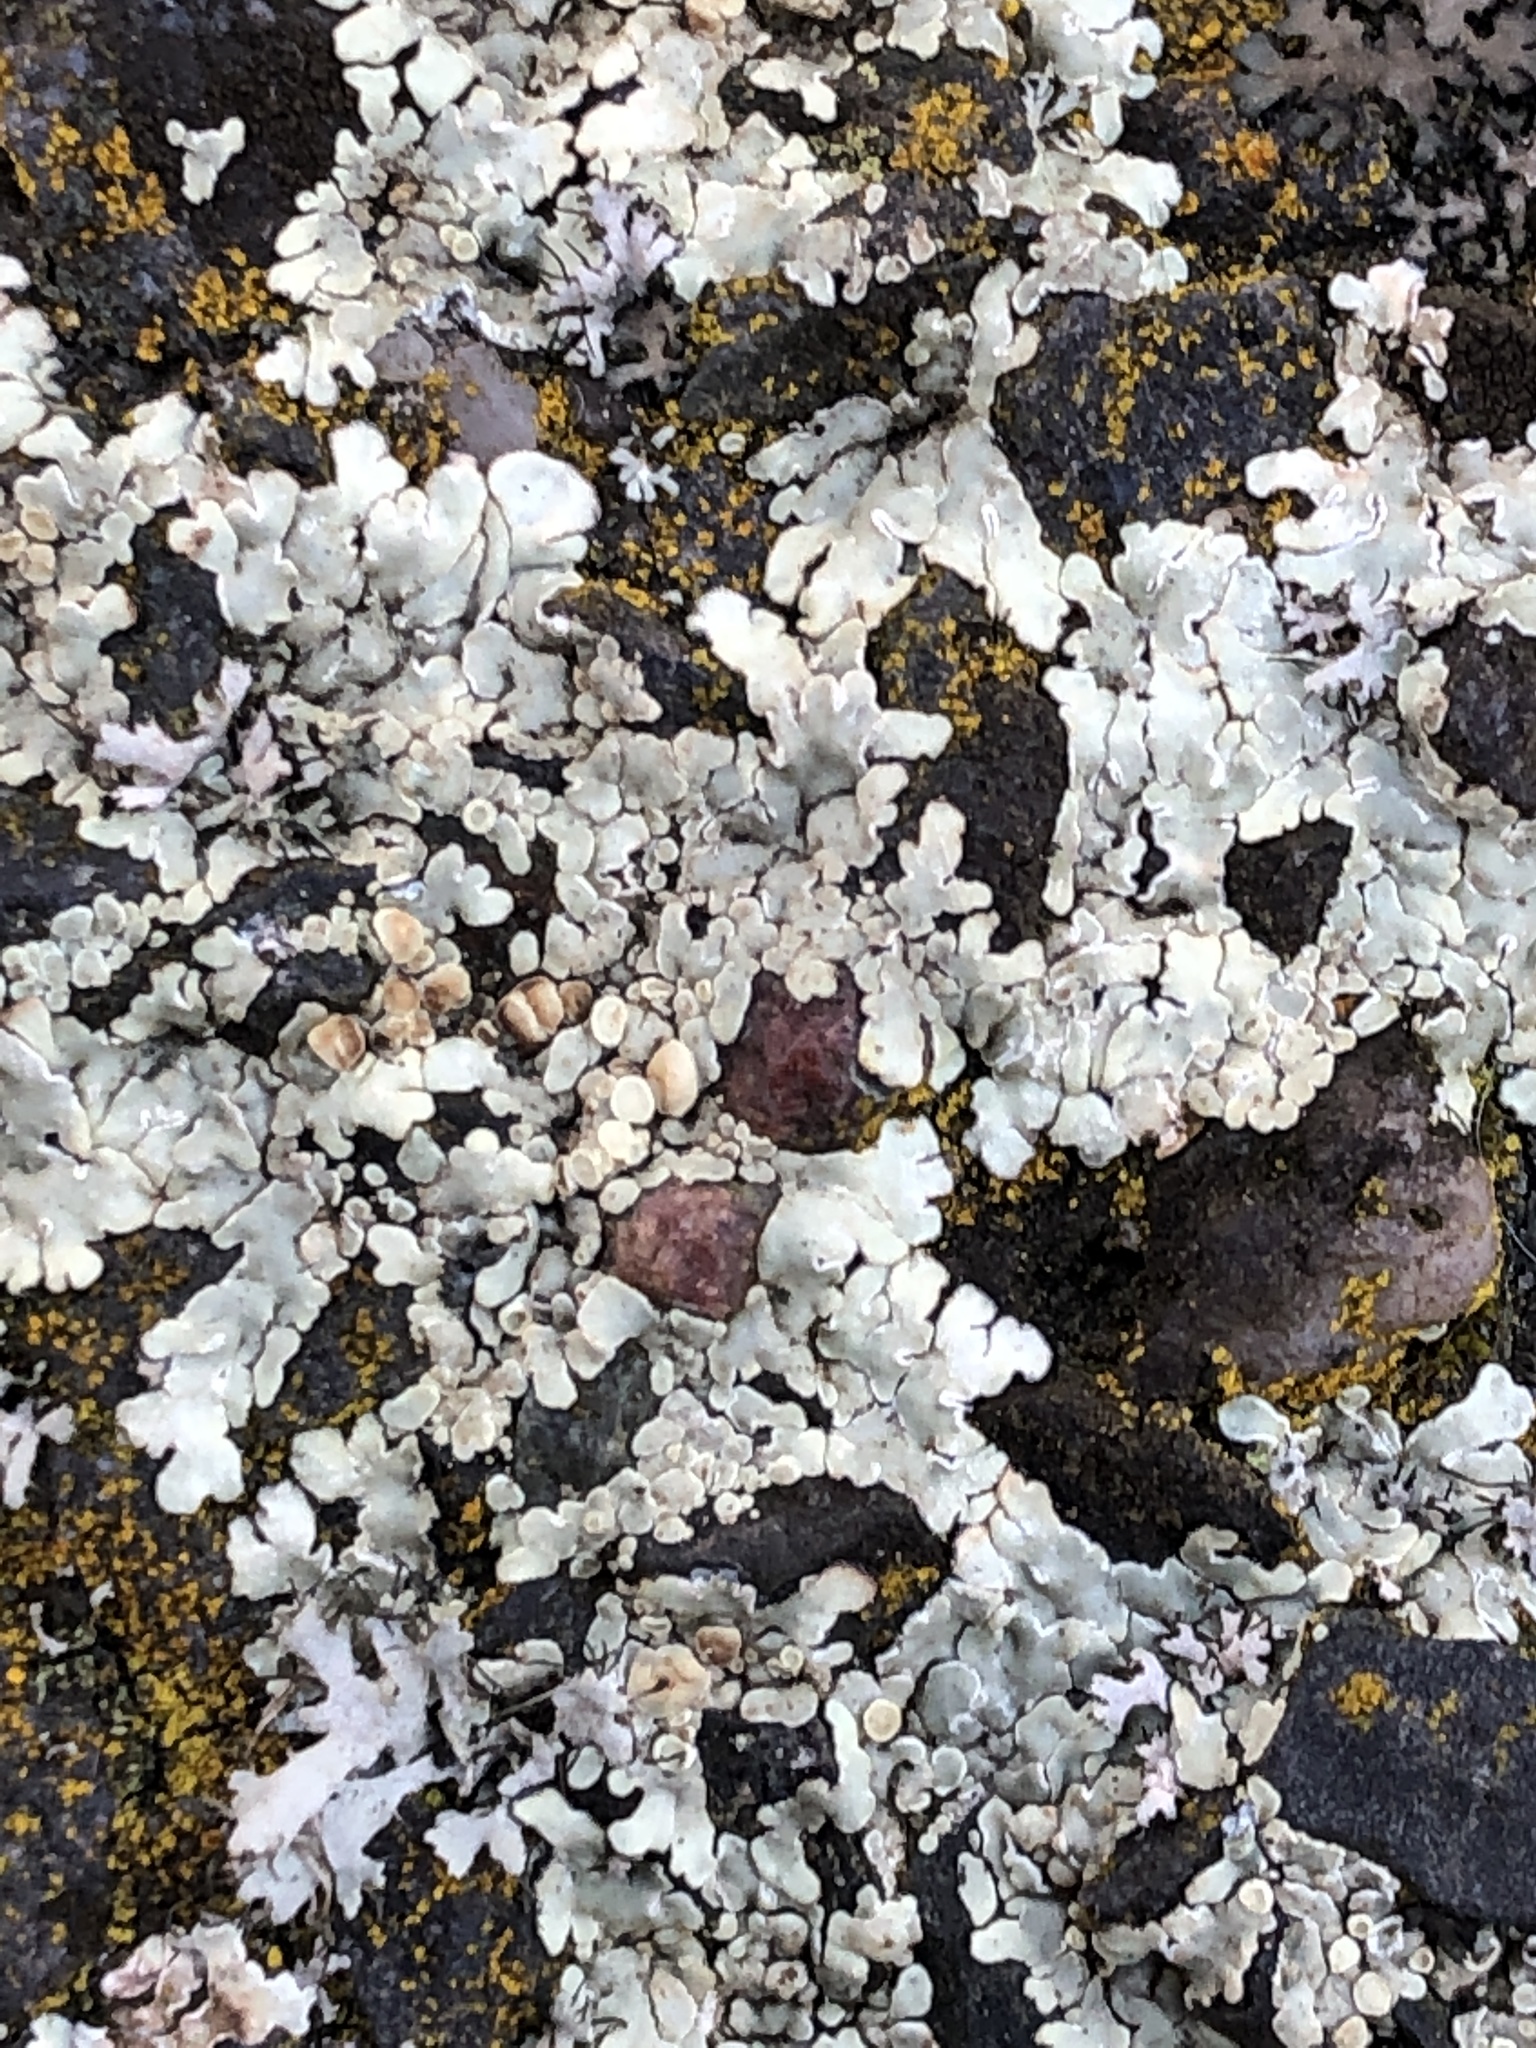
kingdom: Fungi
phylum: Ascomycota
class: Lecanoromycetes
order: Lecanorales
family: Lecanoraceae
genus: Protoparmeliopsis
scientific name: Protoparmeliopsis muralis
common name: Stonewall rim lichen
